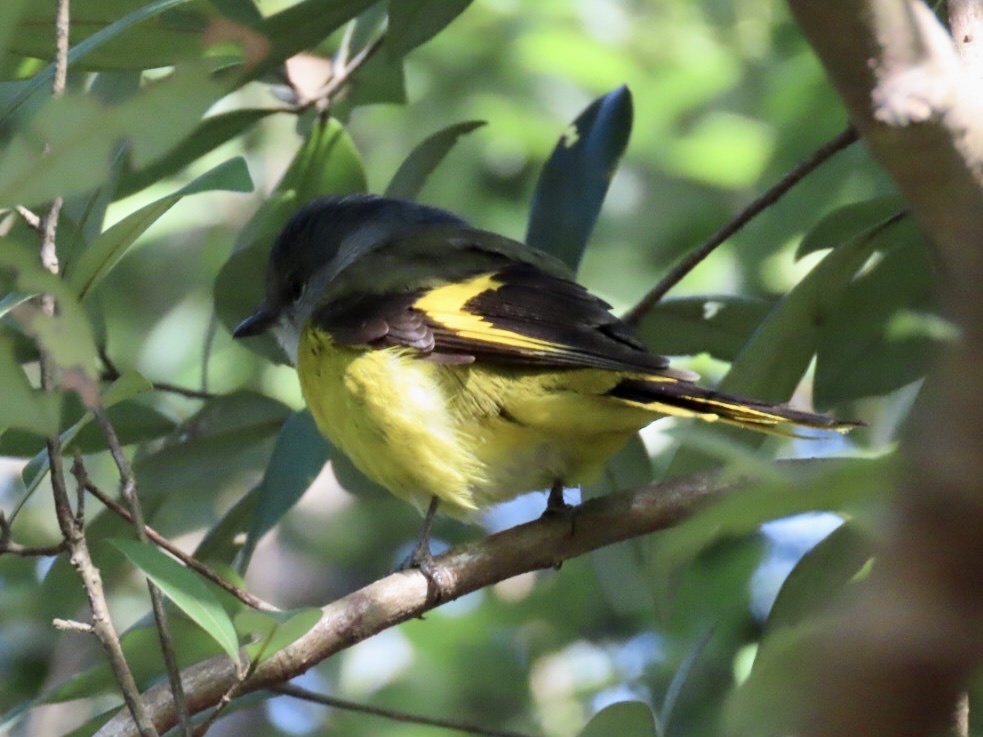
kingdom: Animalia
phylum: Chordata
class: Aves
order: Passeriformes
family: Campephagidae
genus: Pericrocotus
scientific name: Pericrocotus solaris
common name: Grey-chinned minivet
